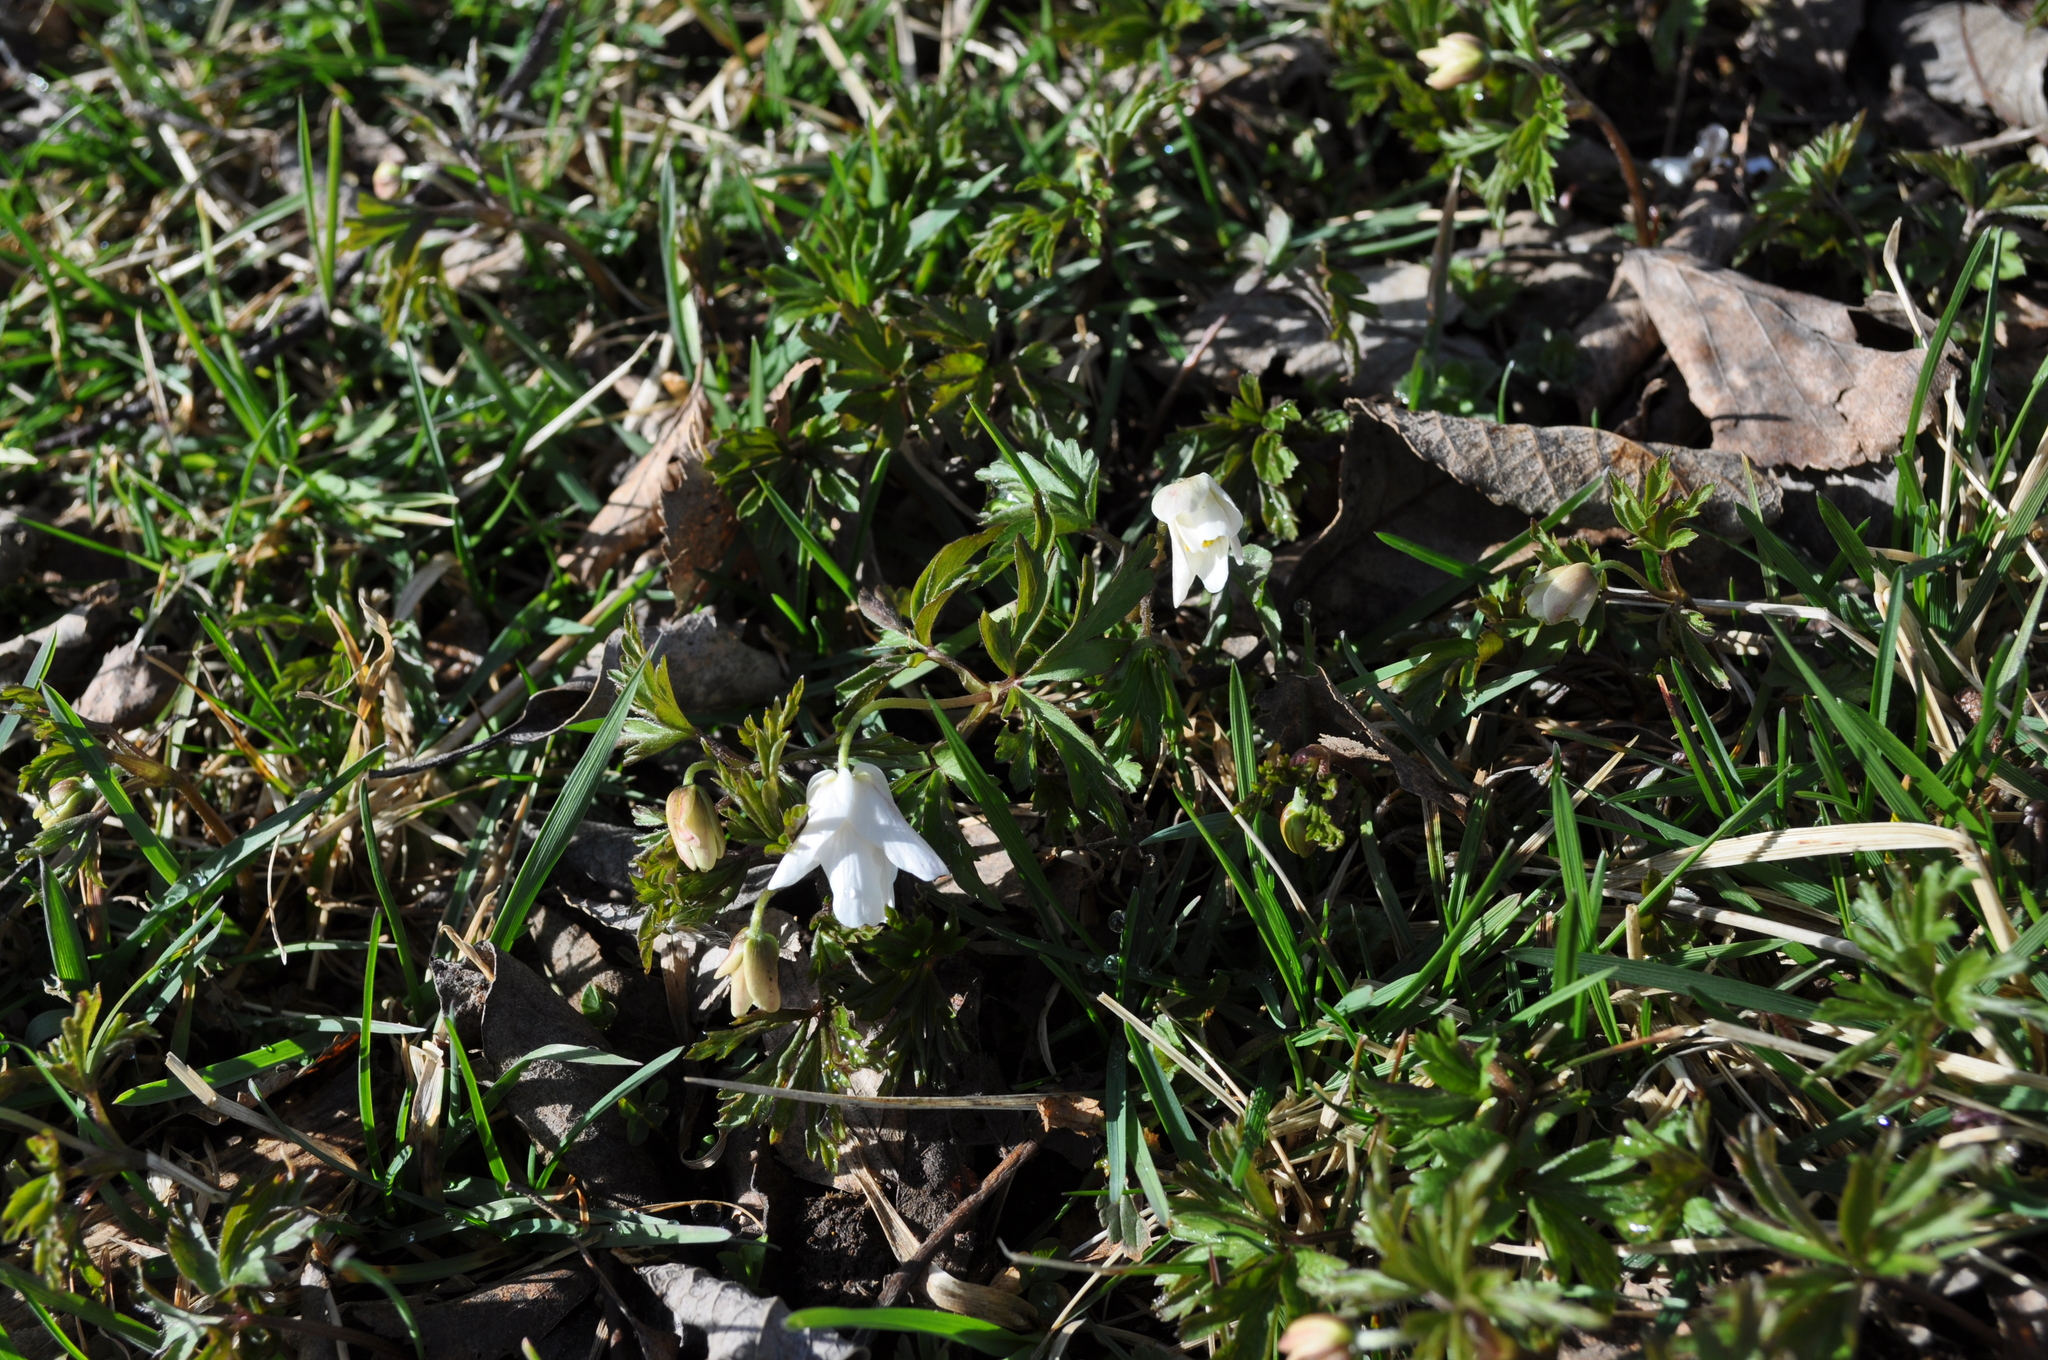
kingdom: Plantae
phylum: Tracheophyta
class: Magnoliopsida
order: Ranunculales
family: Ranunculaceae
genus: Anemone
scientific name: Anemone nemorosa
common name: Wood anemone
